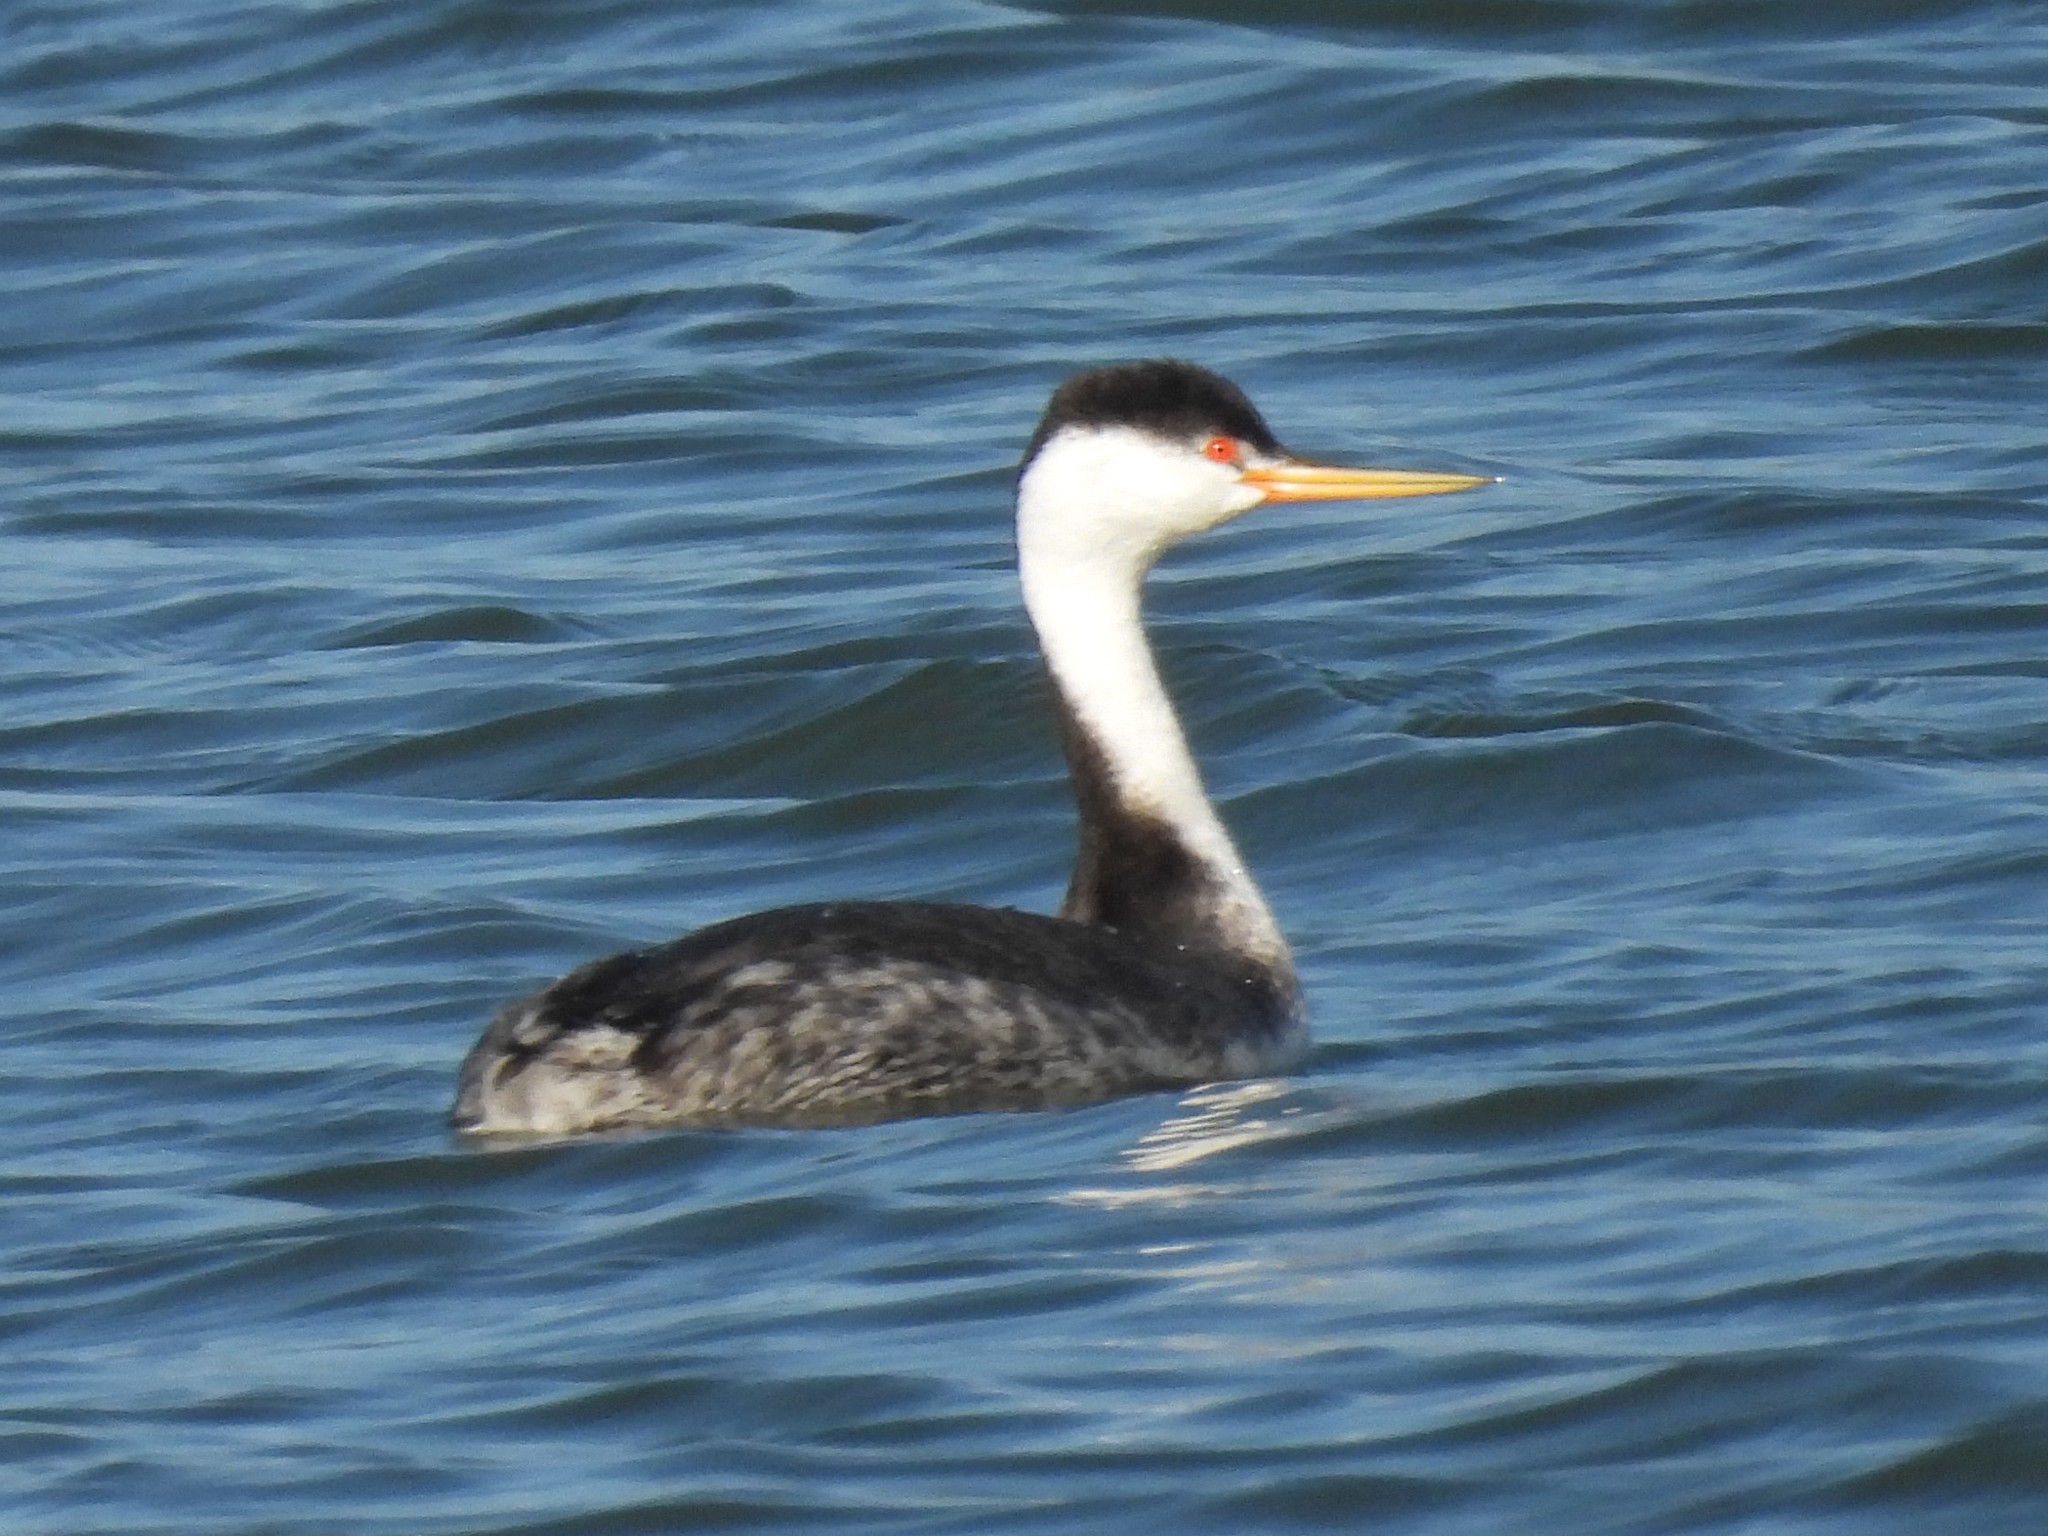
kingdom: Animalia
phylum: Chordata
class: Aves
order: Podicipediformes
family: Podicipedidae
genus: Aechmophorus
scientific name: Aechmophorus clarkii
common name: Clark's grebe
